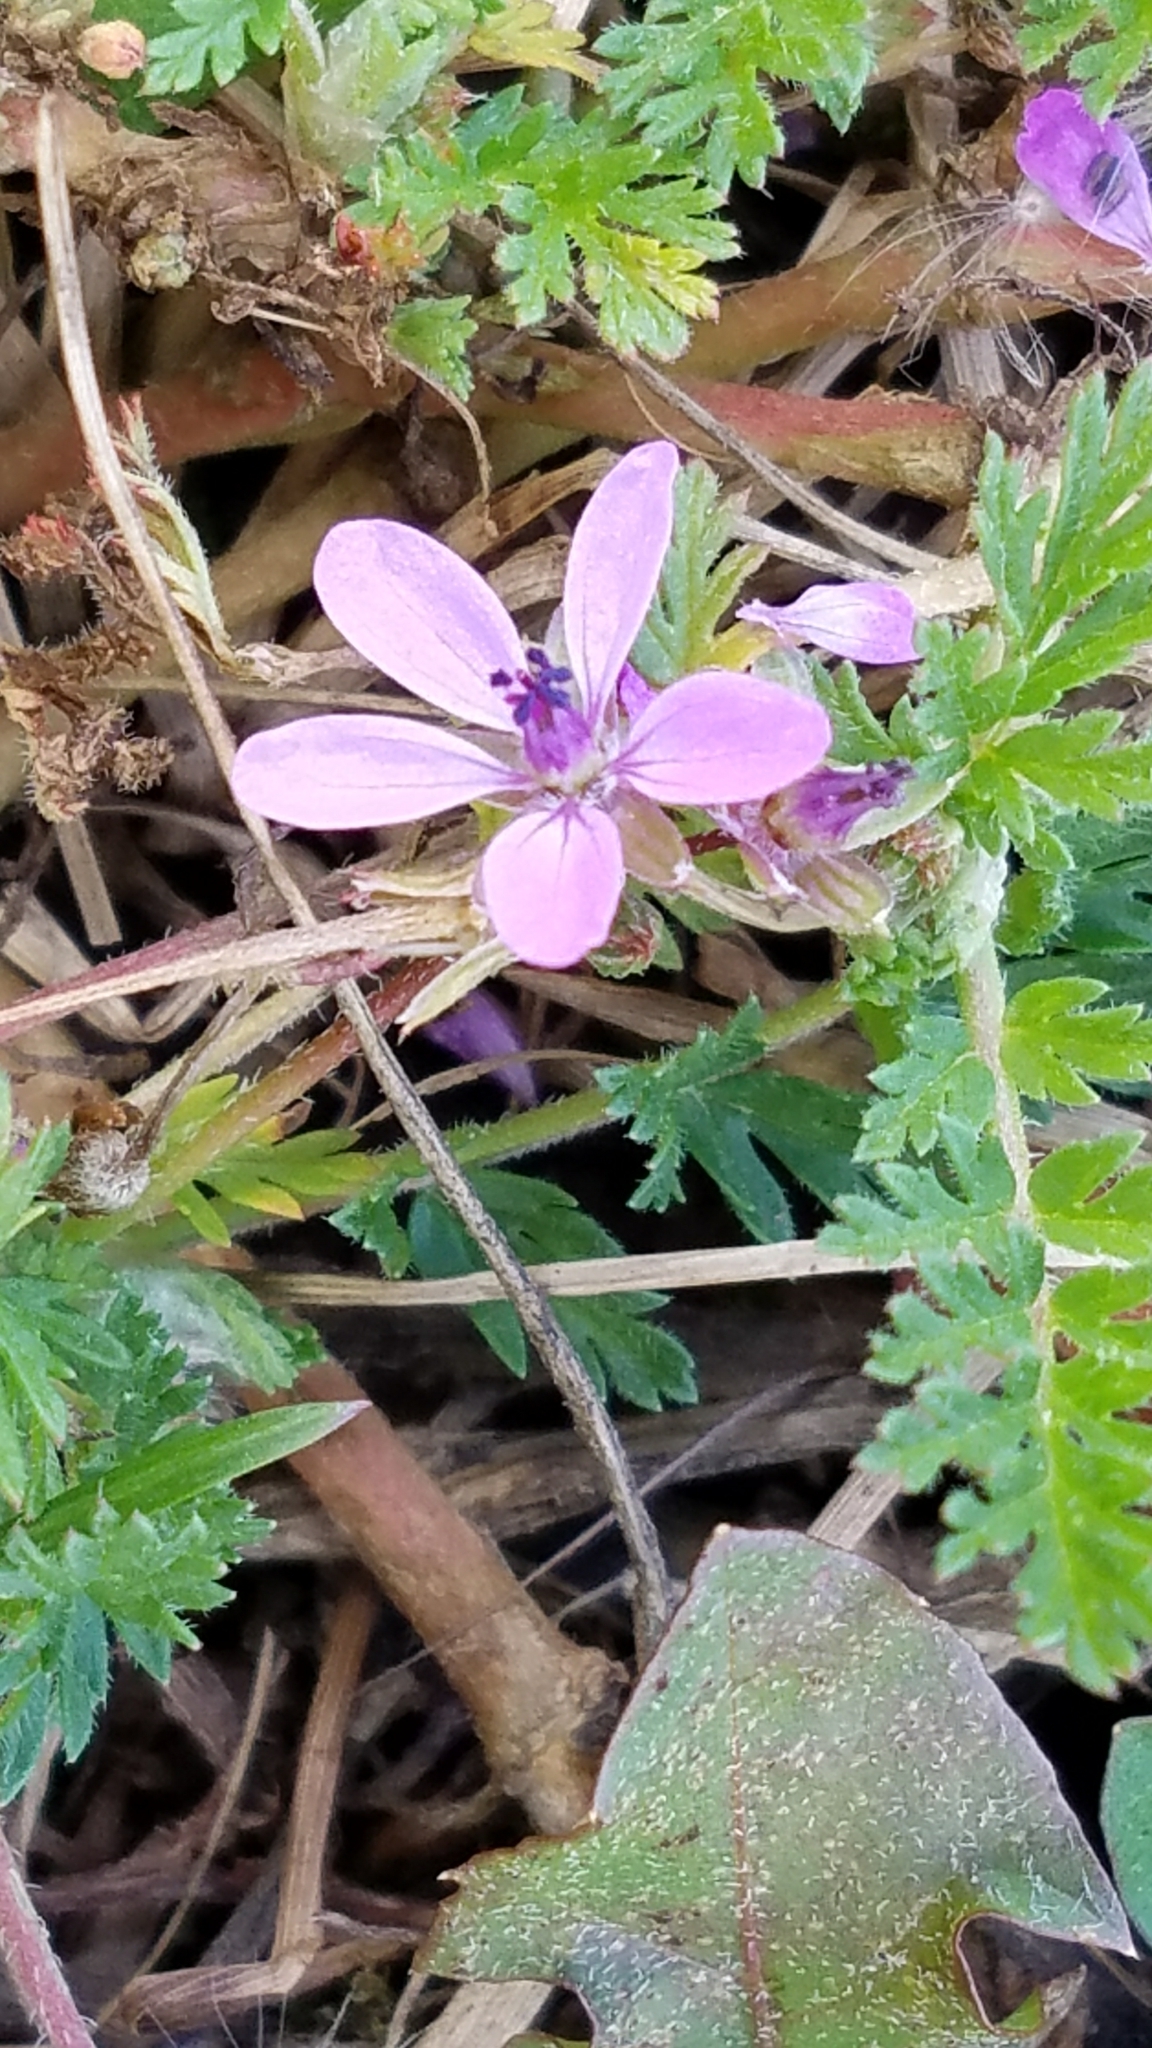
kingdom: Plantae
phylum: Tracheophyta
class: Magnoliopsida
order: Geraniales
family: Geraniaceae
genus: Erodium
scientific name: Erodium cicutarium
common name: Common stork's-bill
